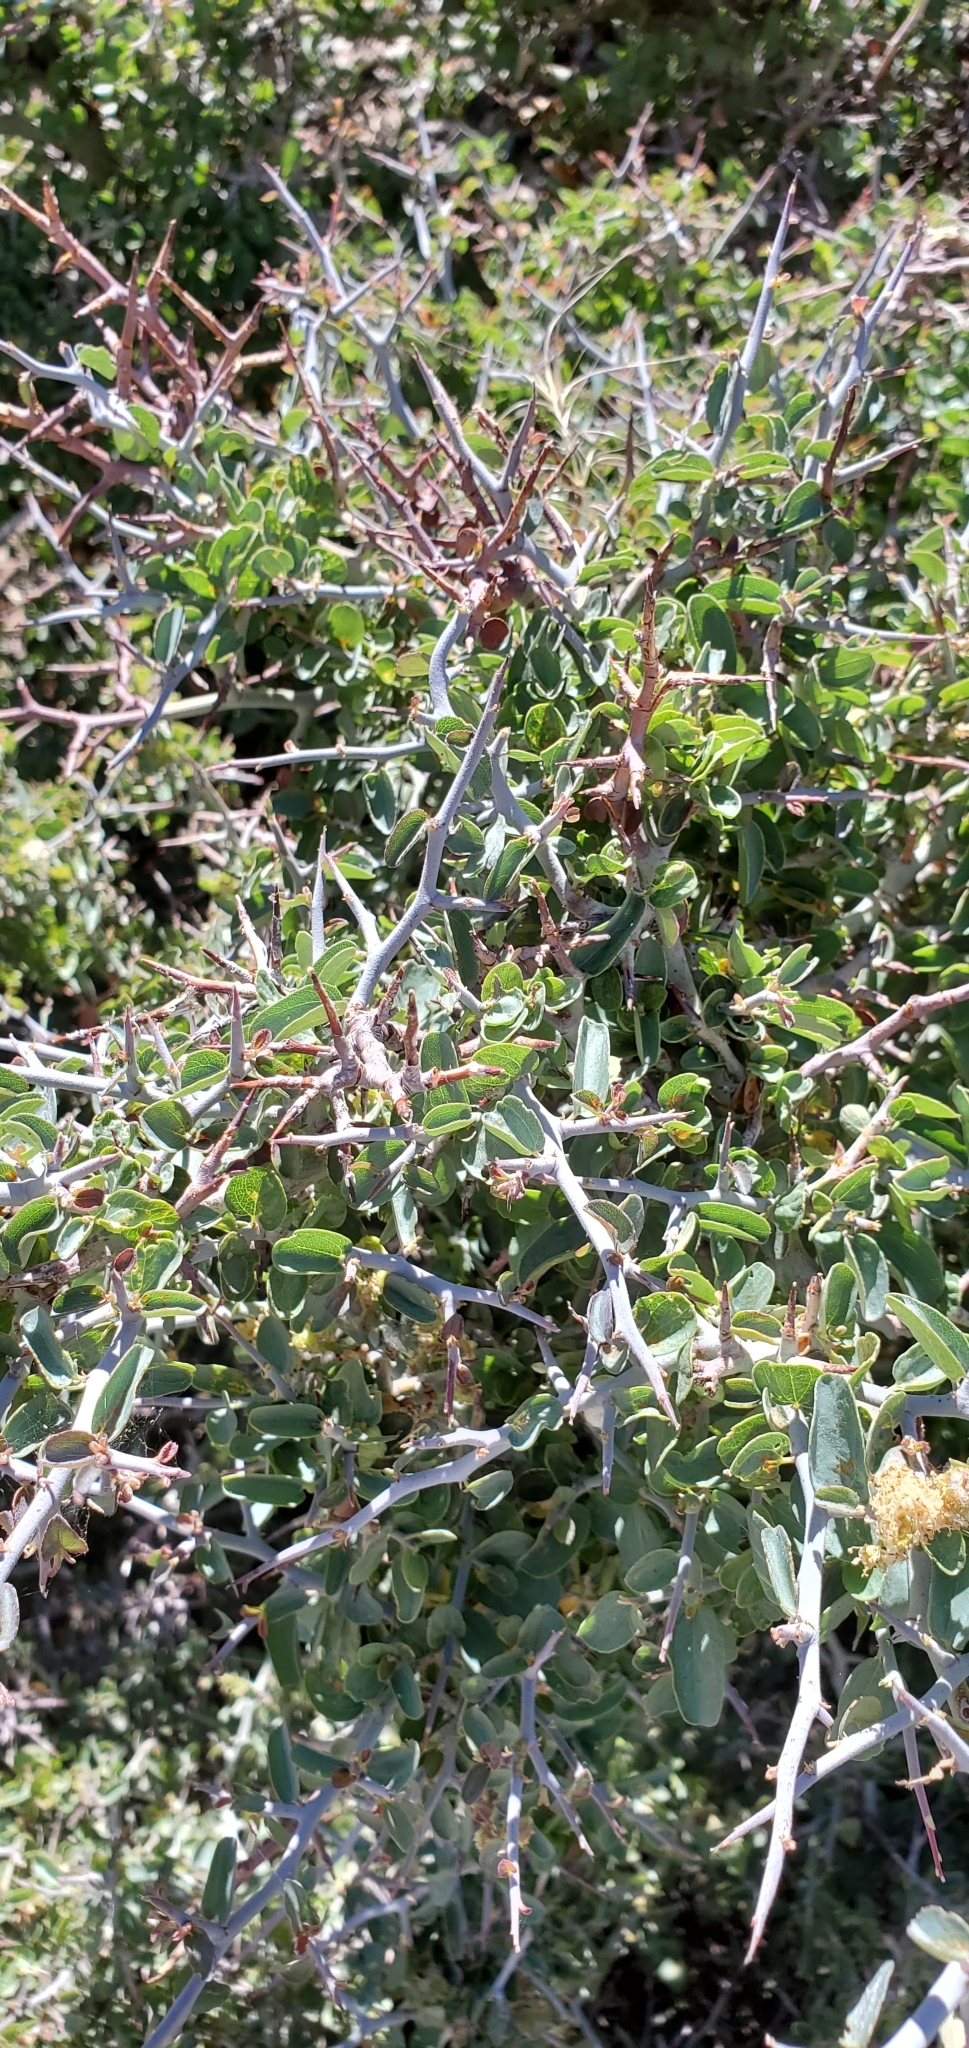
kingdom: Plantae
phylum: Tracheophyta
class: Magnoliopsida
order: Rosales
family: Rhamnaceae
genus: Ceanothus
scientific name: Ceanothus cordulatus
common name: Mountain whitethorn
